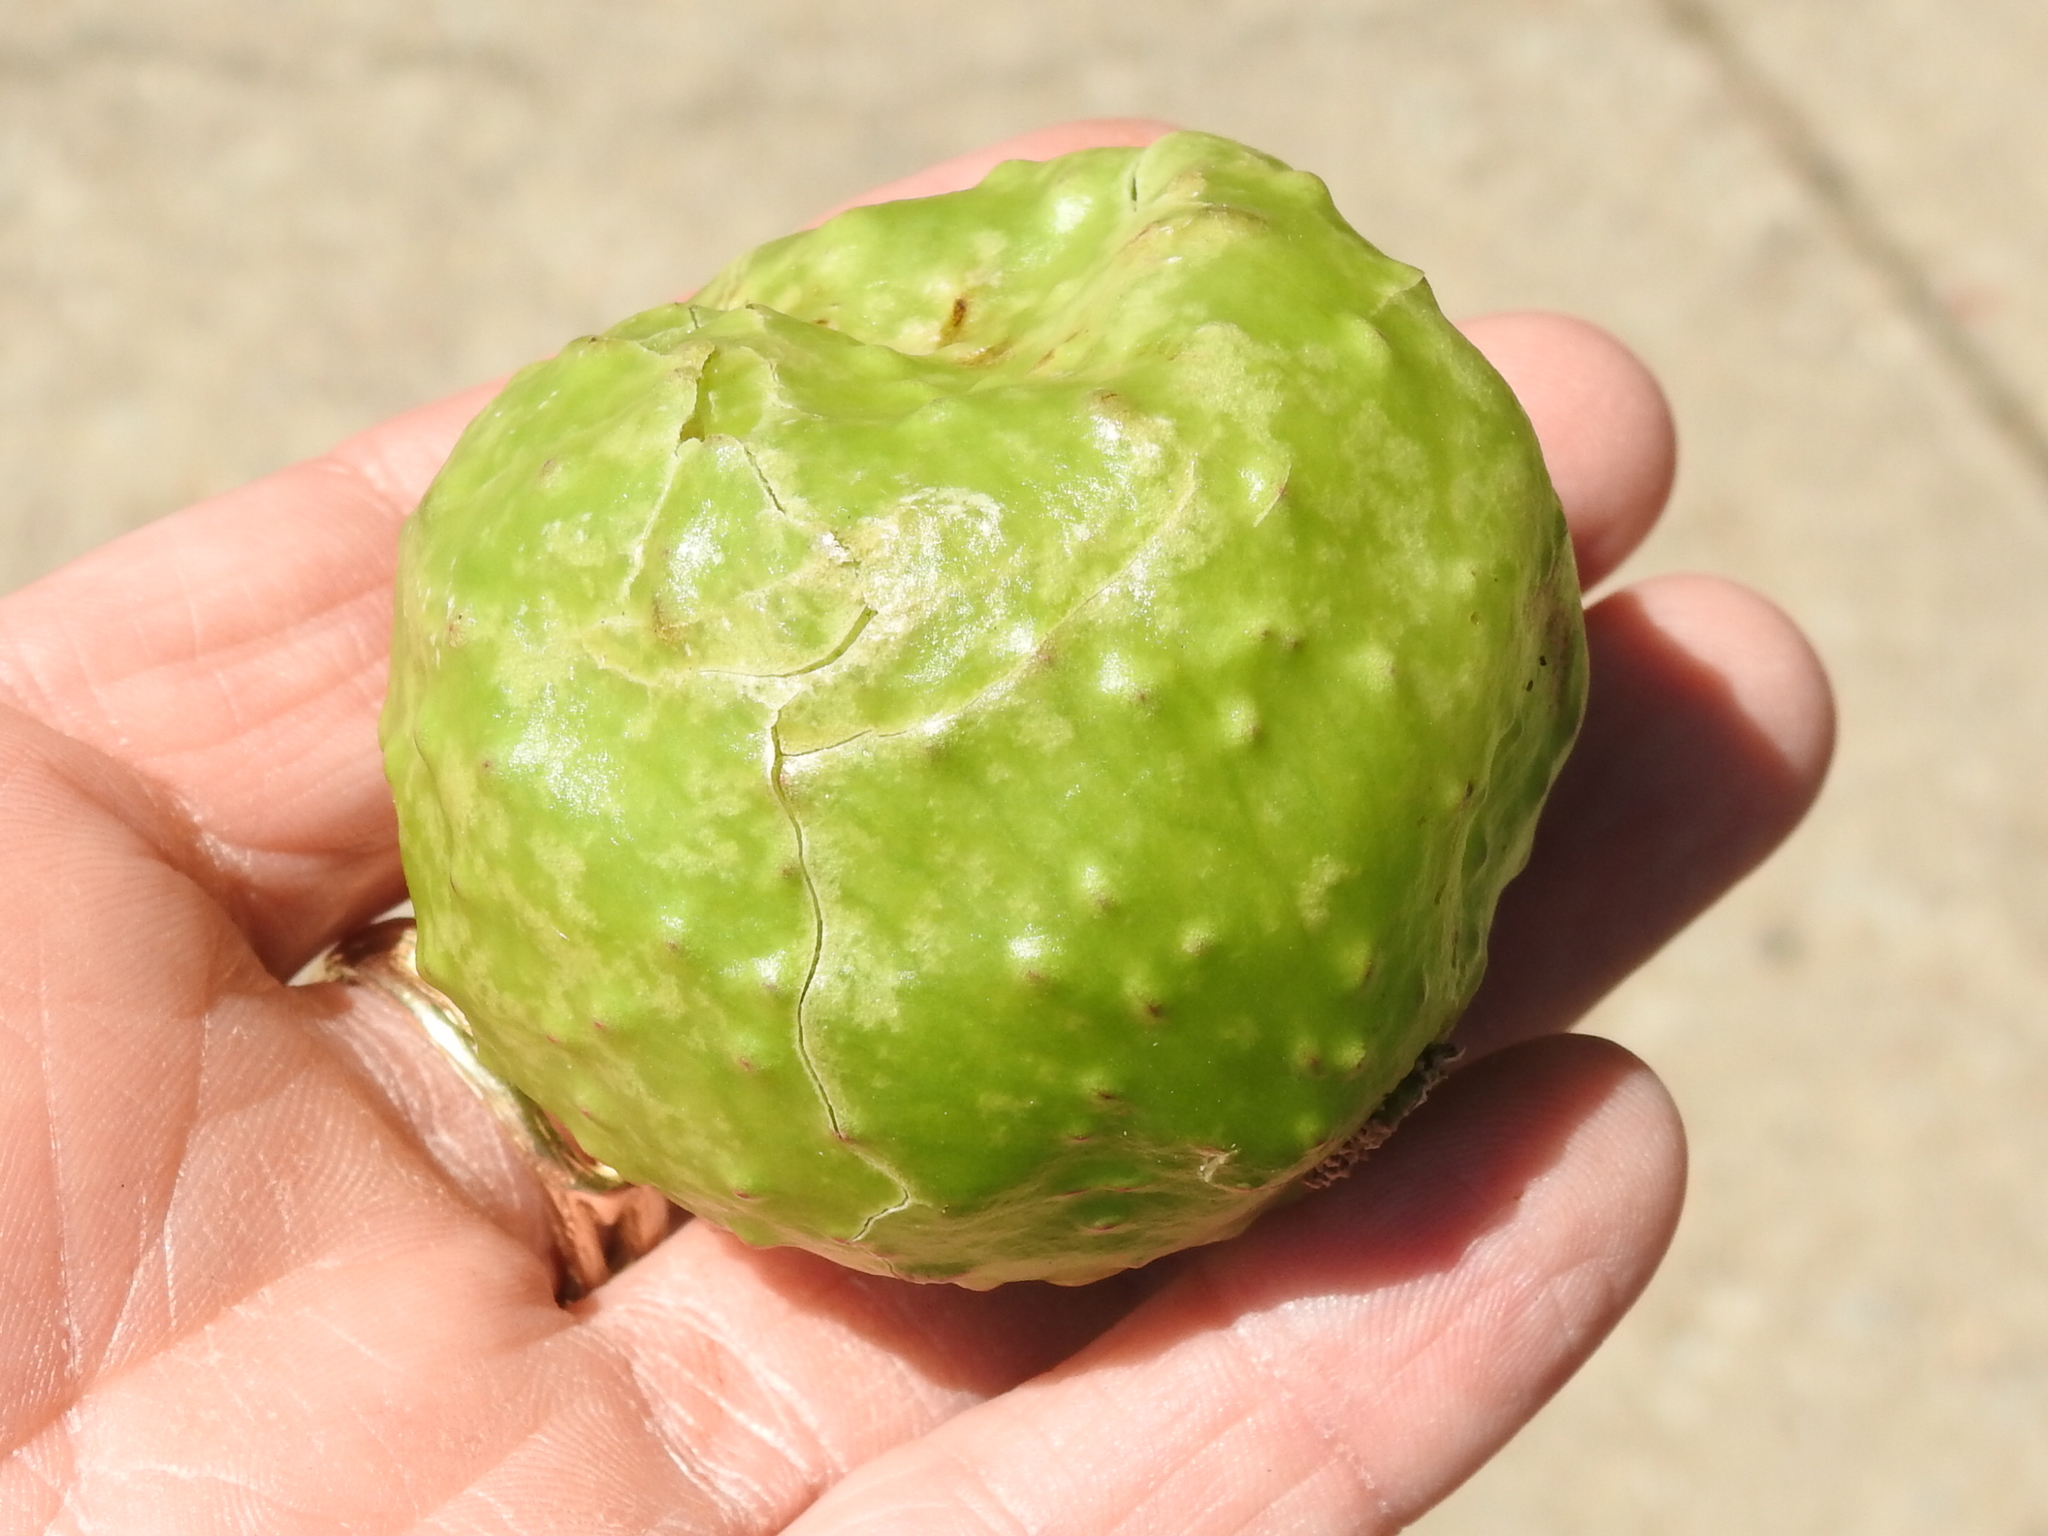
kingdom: Animalia
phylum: Arthropoda
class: Insecta
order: Hymenoptera
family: Cynipidae
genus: Amphibolips
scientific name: Amphibolips
